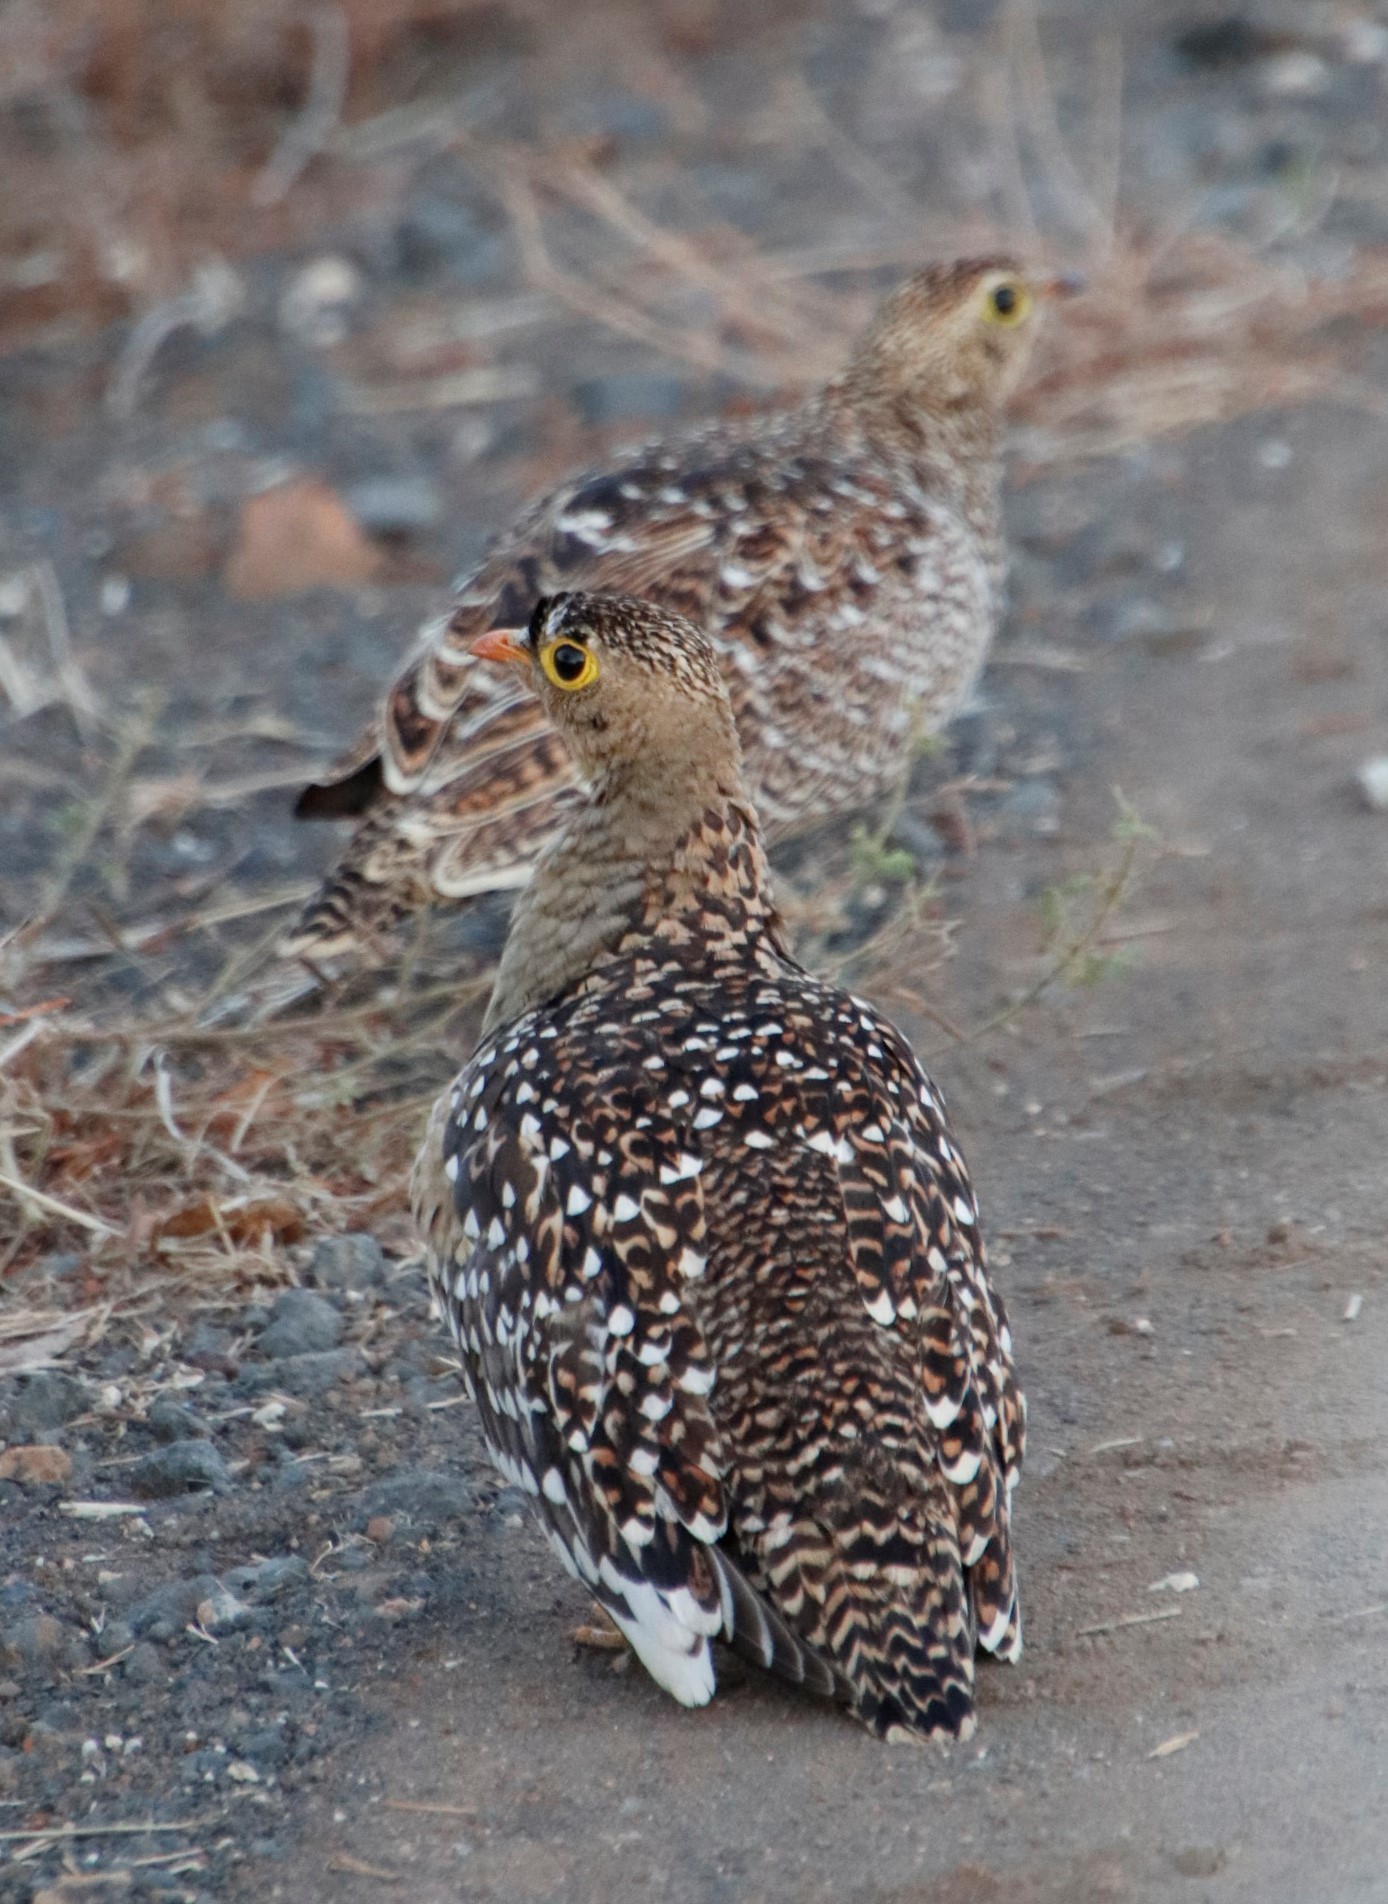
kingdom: Animalia
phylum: Chordata
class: Aves
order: Pteroclidiformes
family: Pteroclididae
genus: Pterocles
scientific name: Pterocles bicinctus
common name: Double-banded sandgrouse
